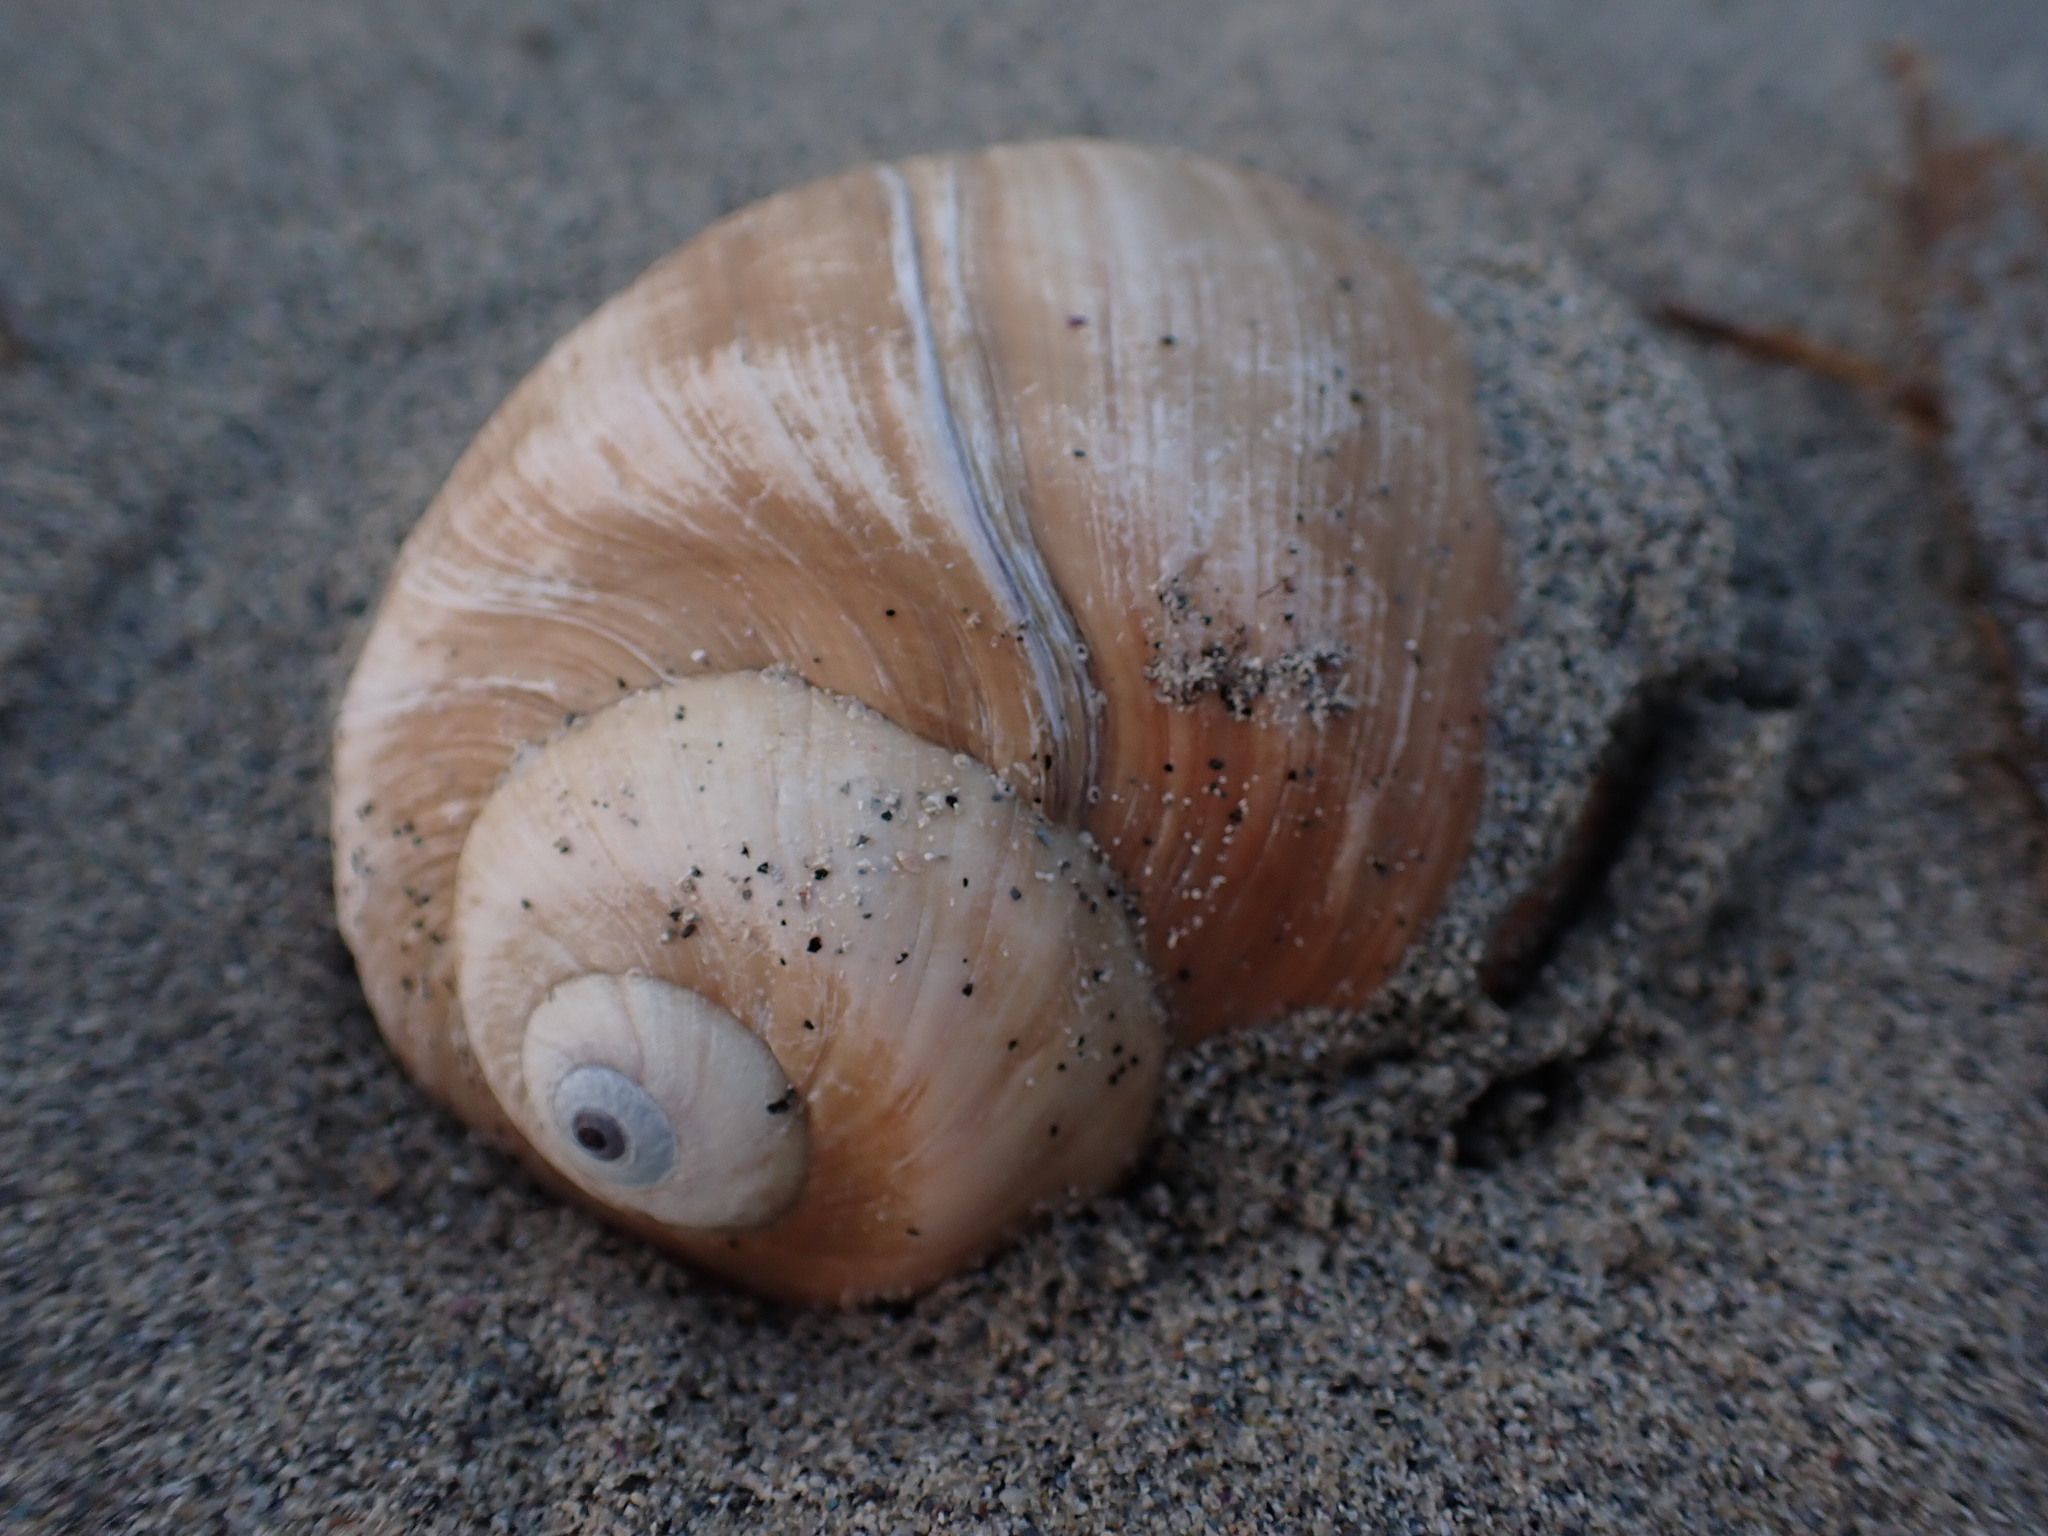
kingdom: Animalia
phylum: Mollusca
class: Gastropoda
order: Littorinimorpha
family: Naticidae
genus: Neverita
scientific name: Neverita lewisii
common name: Lewis' moonsnail
